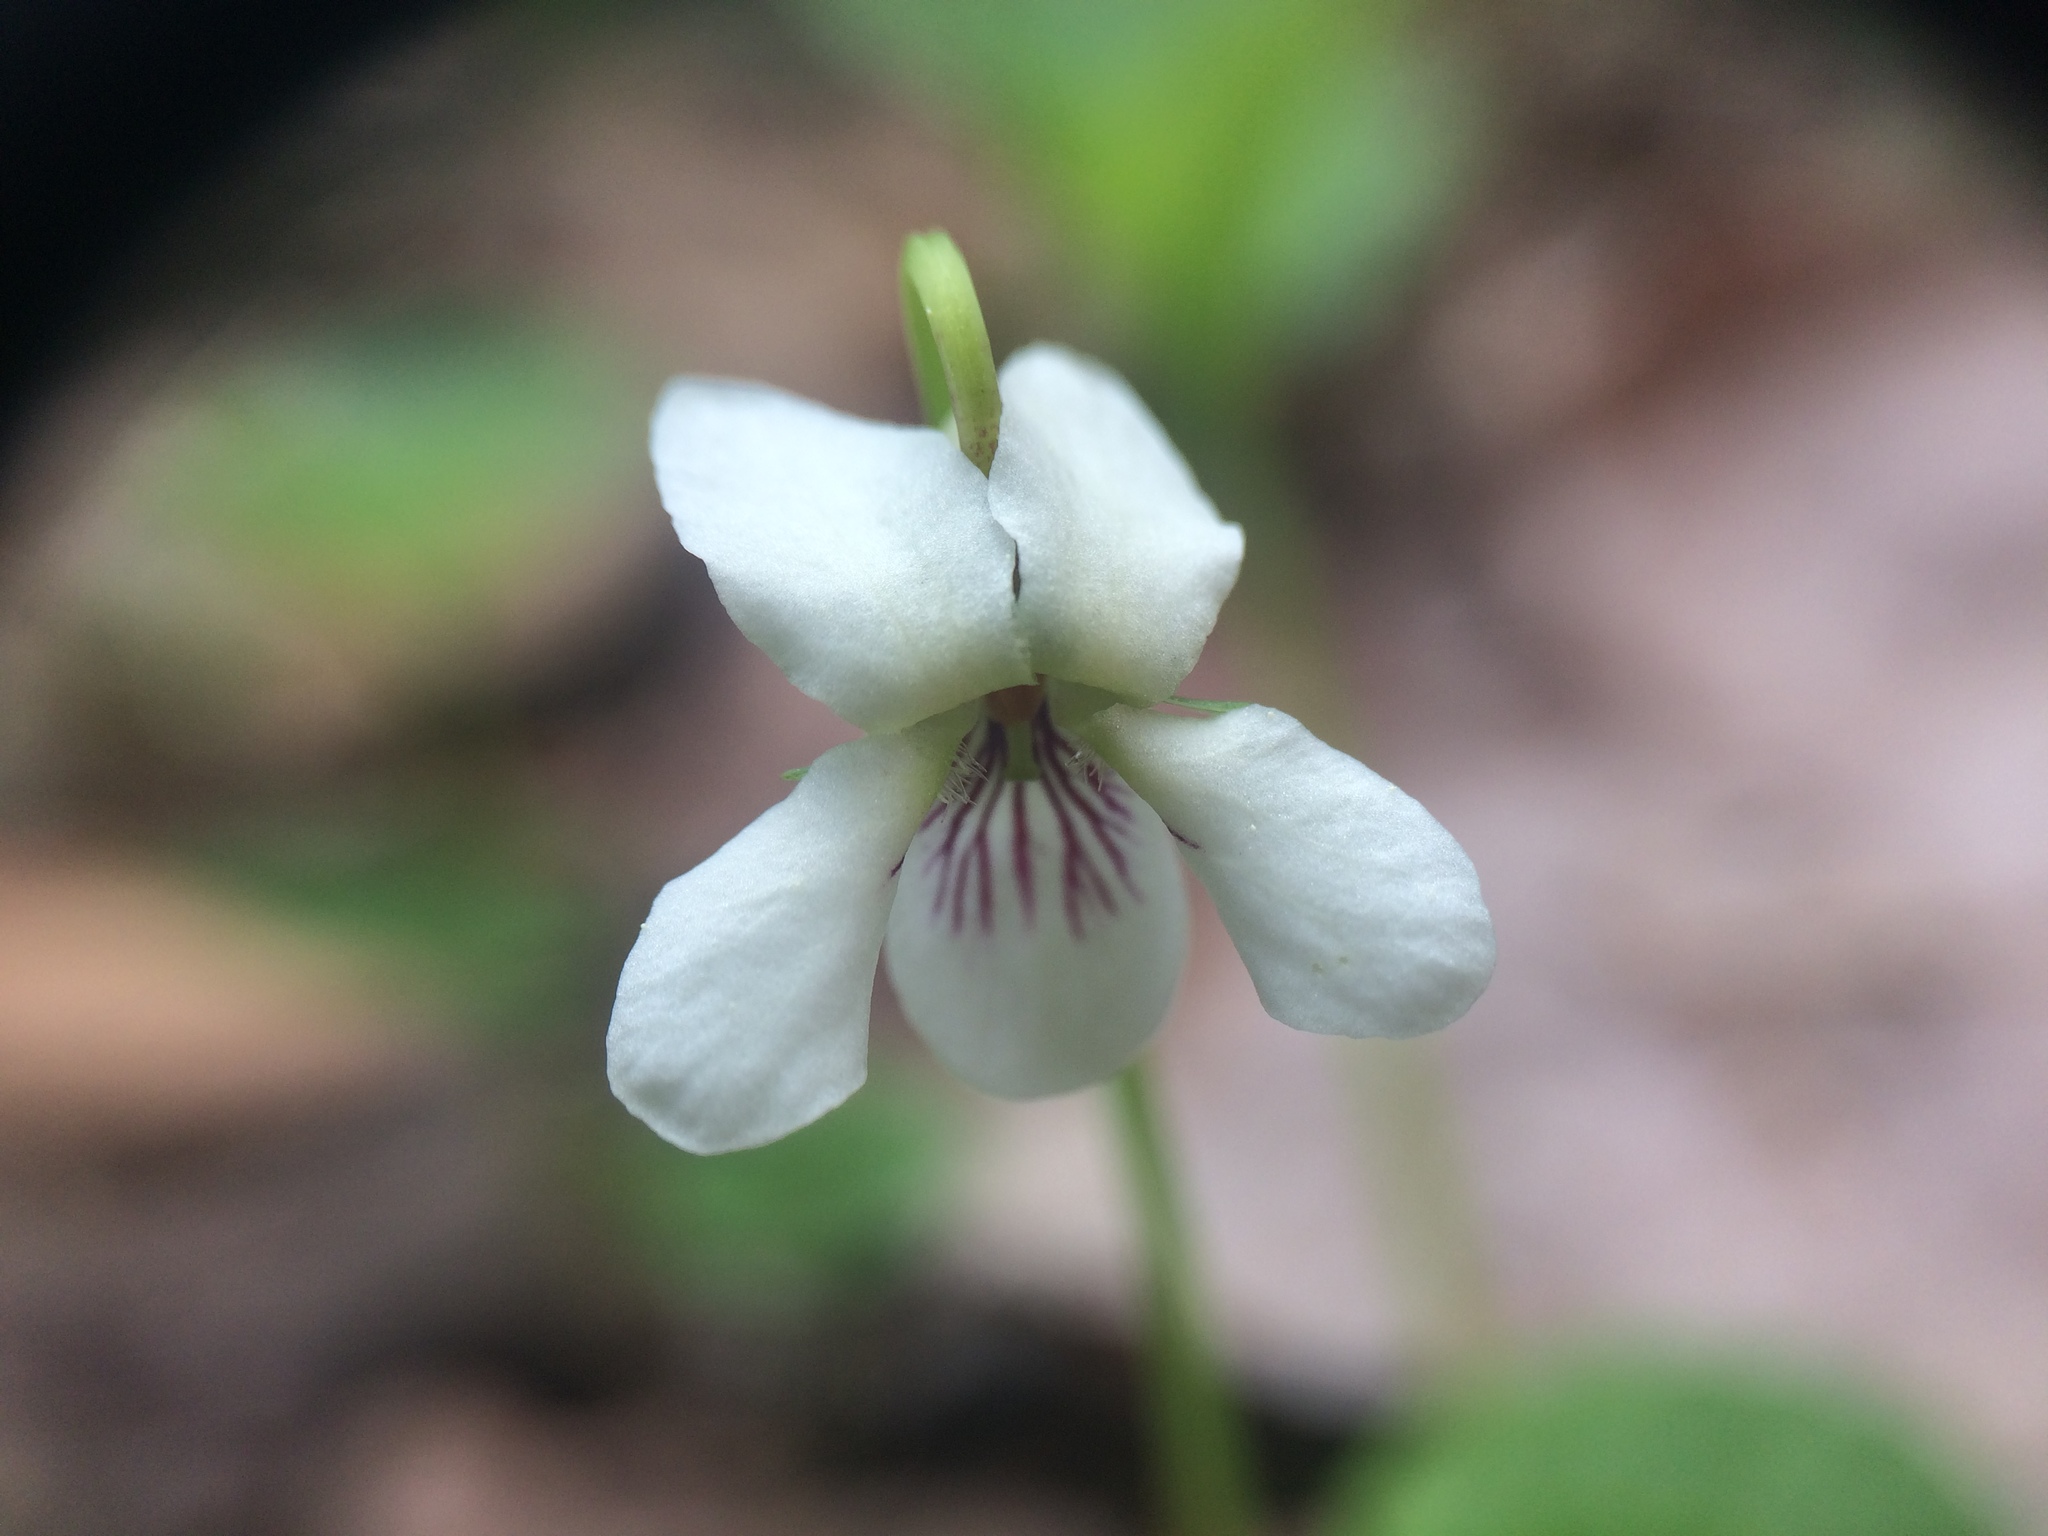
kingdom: Plantae
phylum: Tracheophyta
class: Magnoliopsida
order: Malpighiales
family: Violaceae
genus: Viola
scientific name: Viola minuscula
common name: Northern white violet
